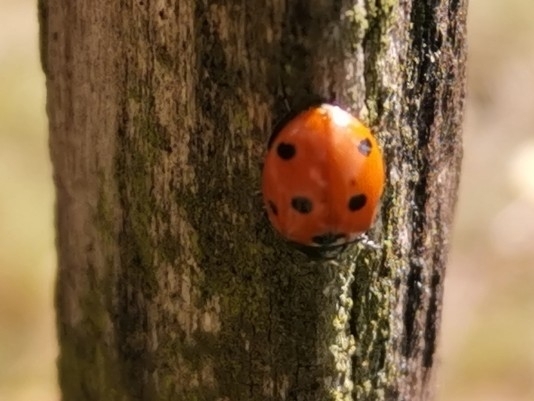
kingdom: Animalia
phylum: Arthropoda
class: Insecta
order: Coleoptera
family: Coccinellidae
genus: Coccinella
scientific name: Coccinella septempunctata
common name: Sevenspotted lady beetle
